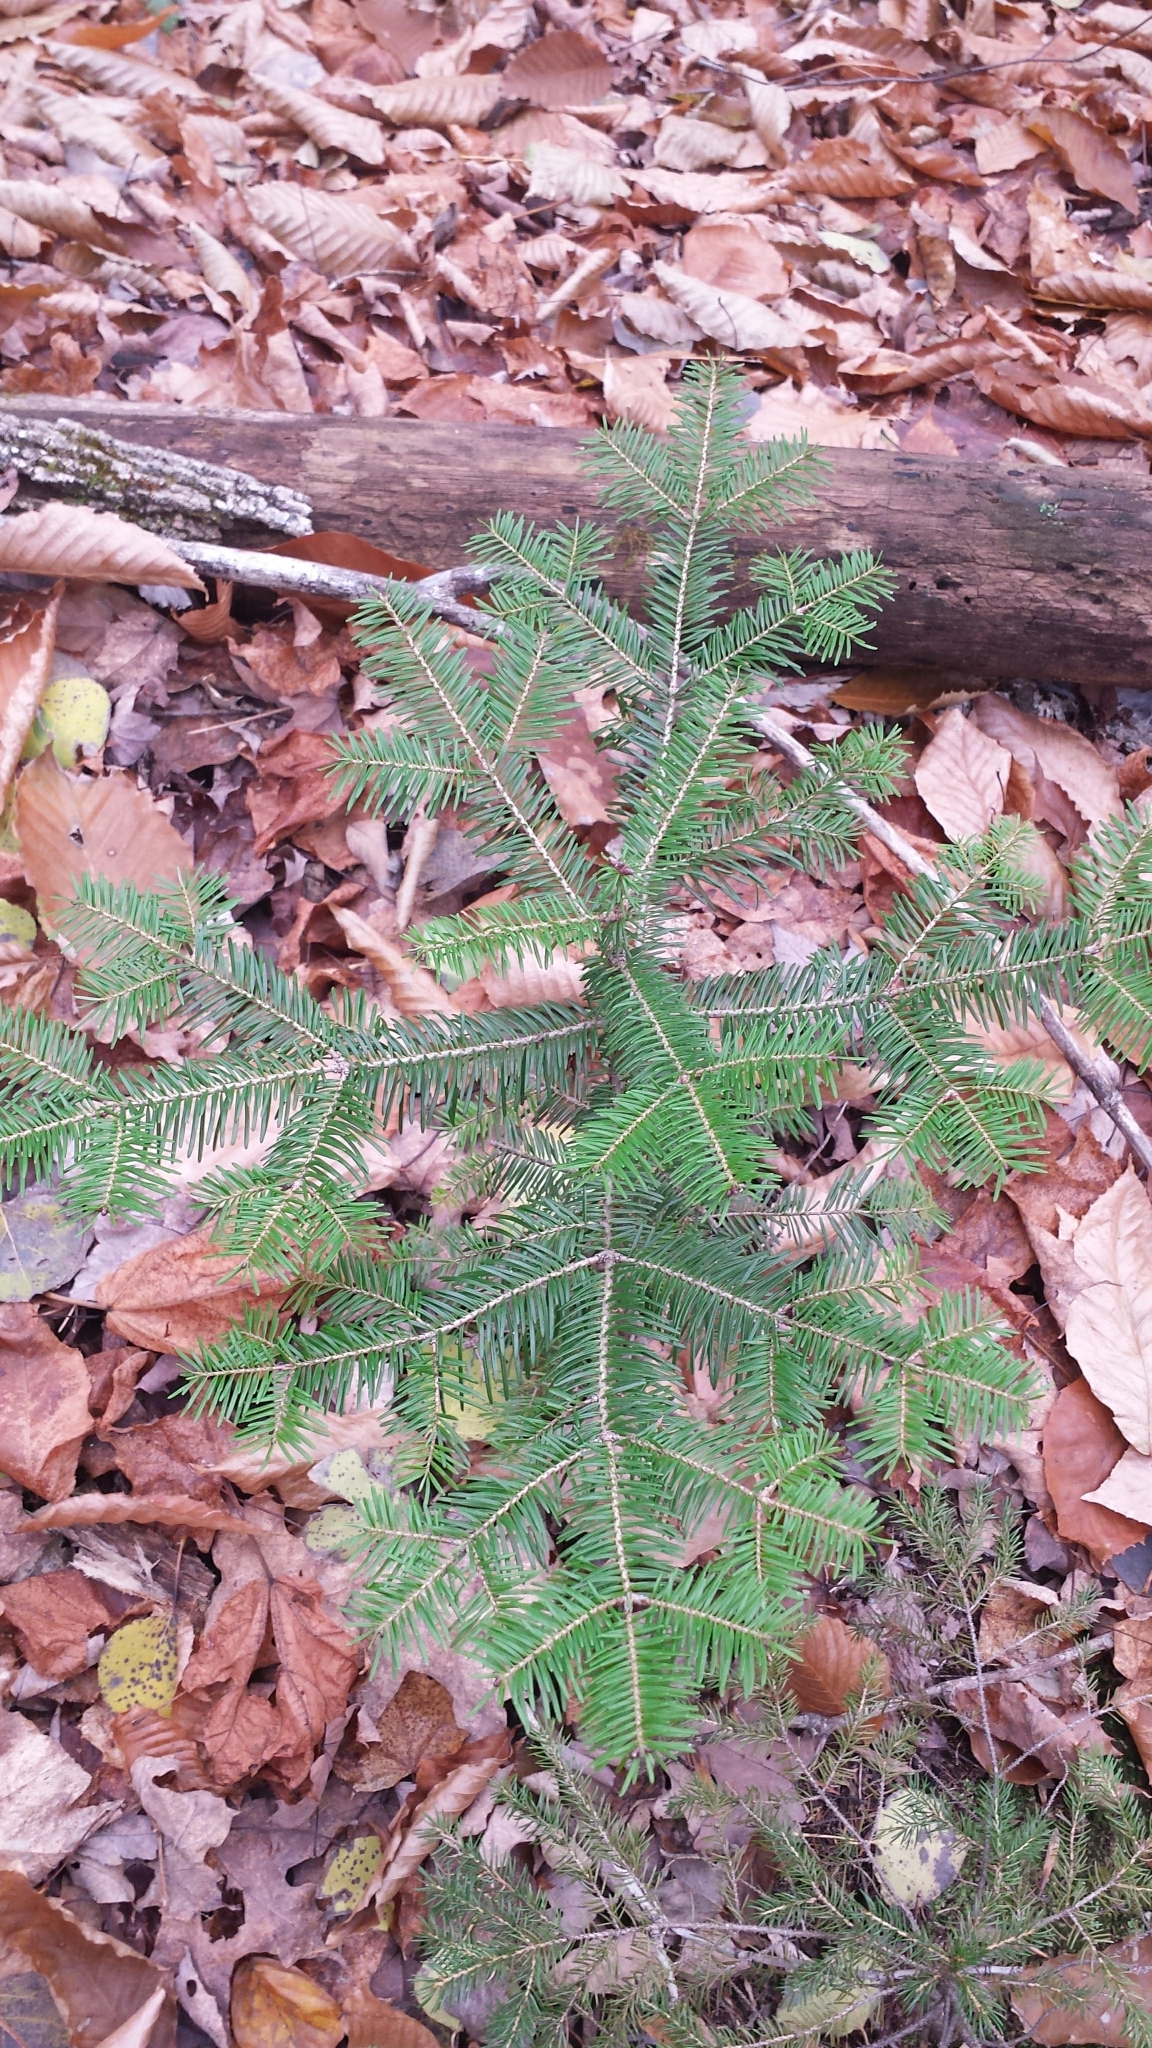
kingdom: Plantae
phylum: Tracheophyta
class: Pinopsida
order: Pinales
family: Pinaceae
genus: Abies
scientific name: Abies balsamea
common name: Balsam fir
